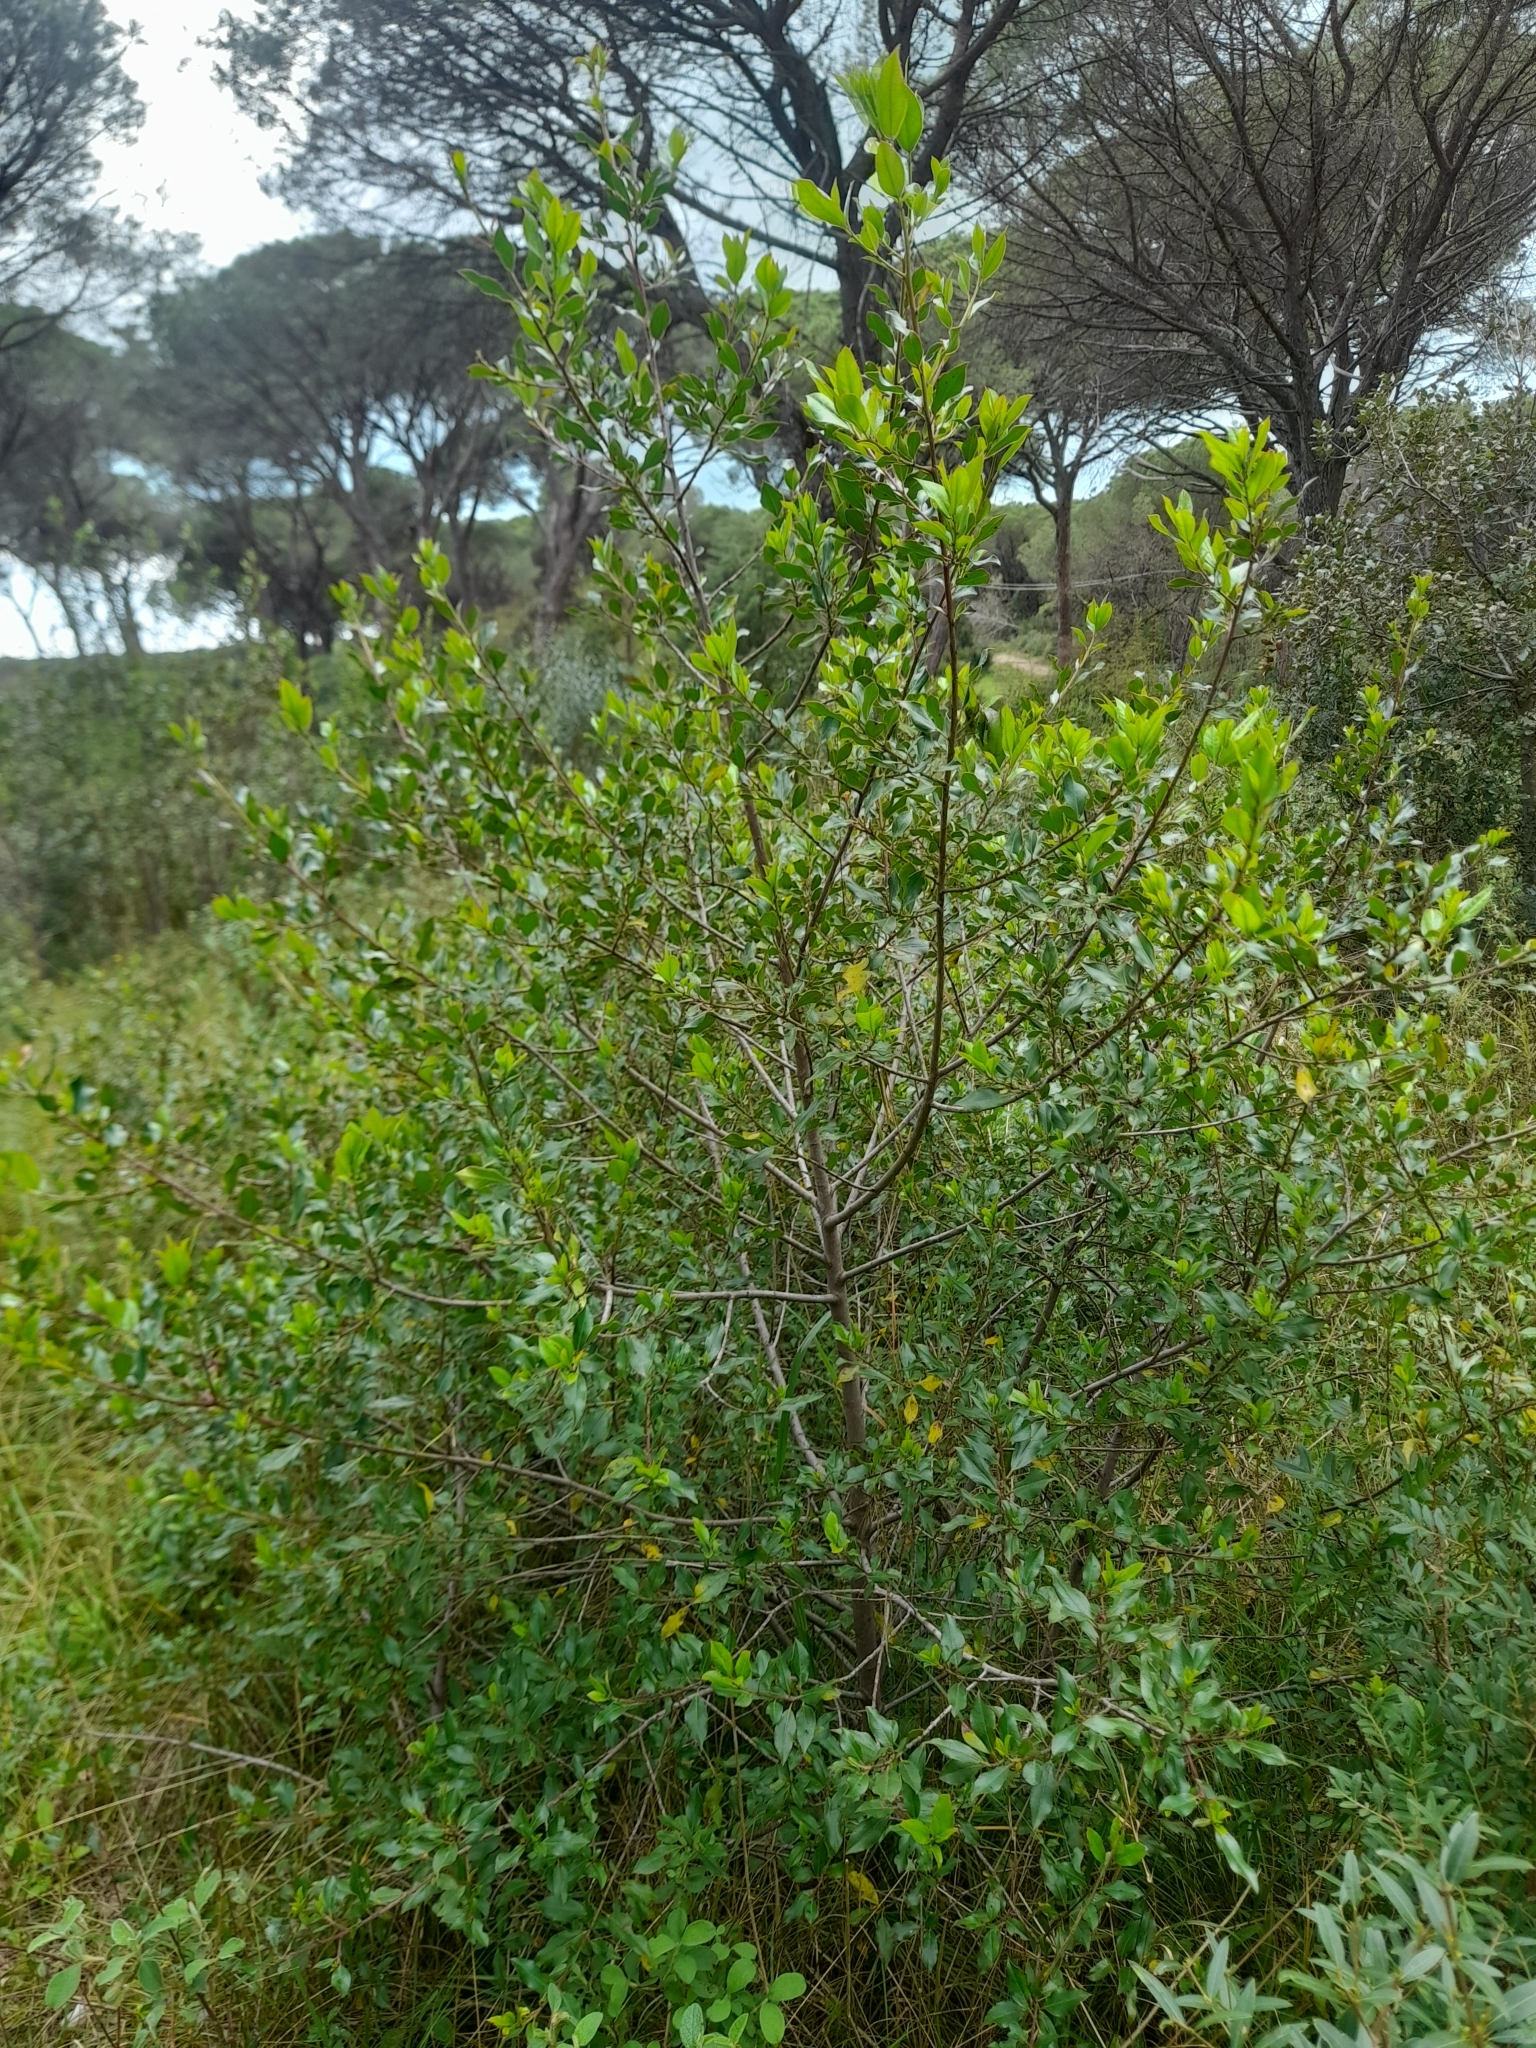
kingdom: Plantae
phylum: Tracheophyta
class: Magnoliopsida
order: Rosales
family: Rhamnaceae
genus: Rhamnus
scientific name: Rhamnus alaternus
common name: Mediterranean buckthorn
